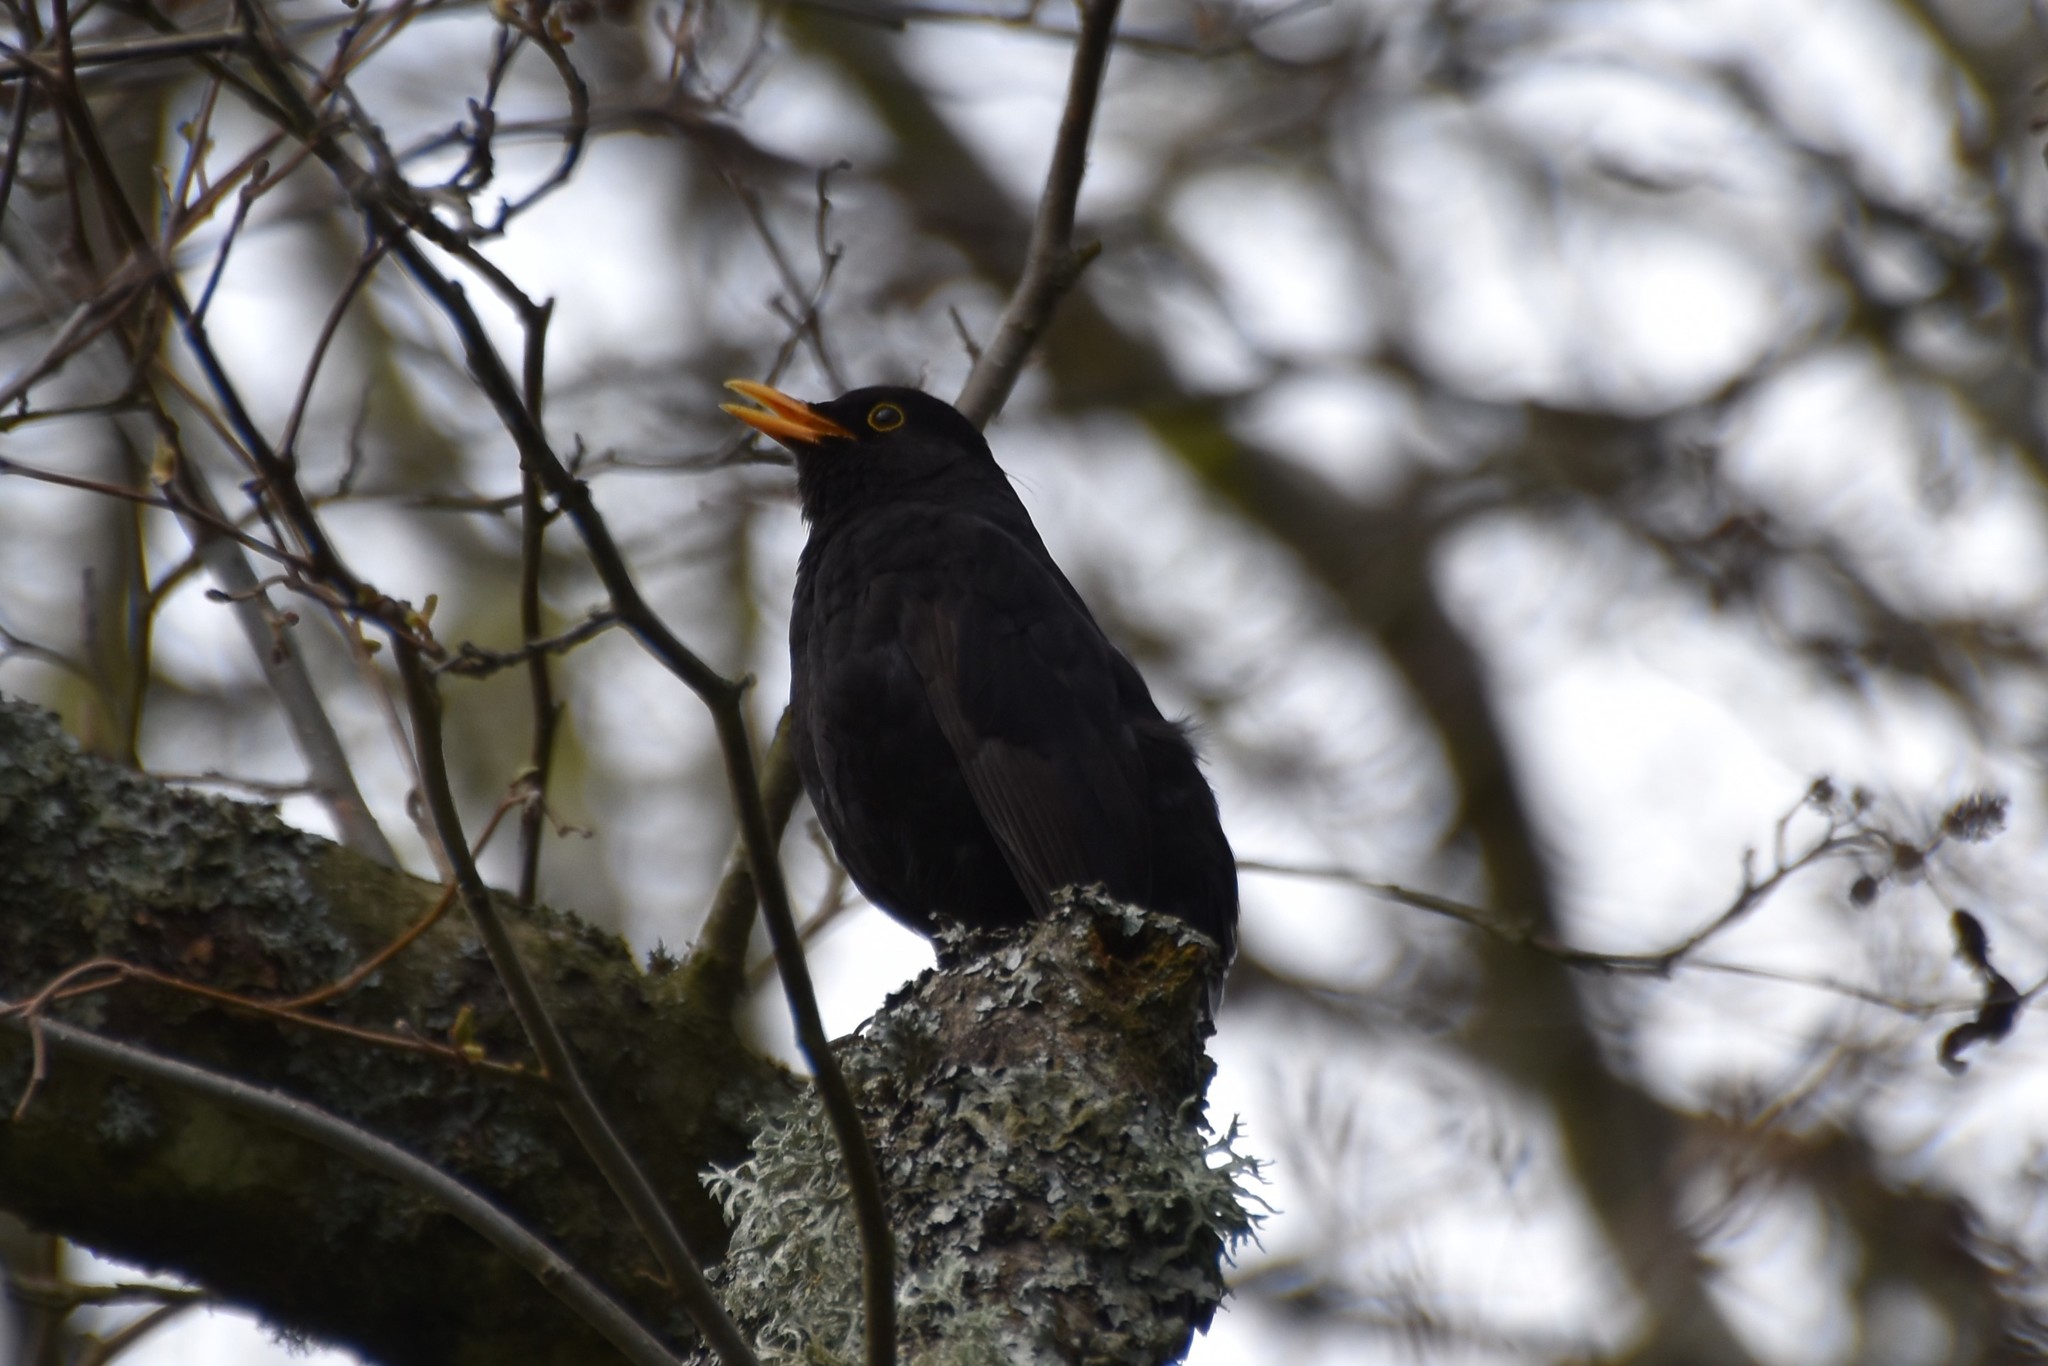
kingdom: Animalia
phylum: Chordata
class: Aves
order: Passeriformes
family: Turdidae
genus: Turdus
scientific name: Turdus merula
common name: Common blackbird
